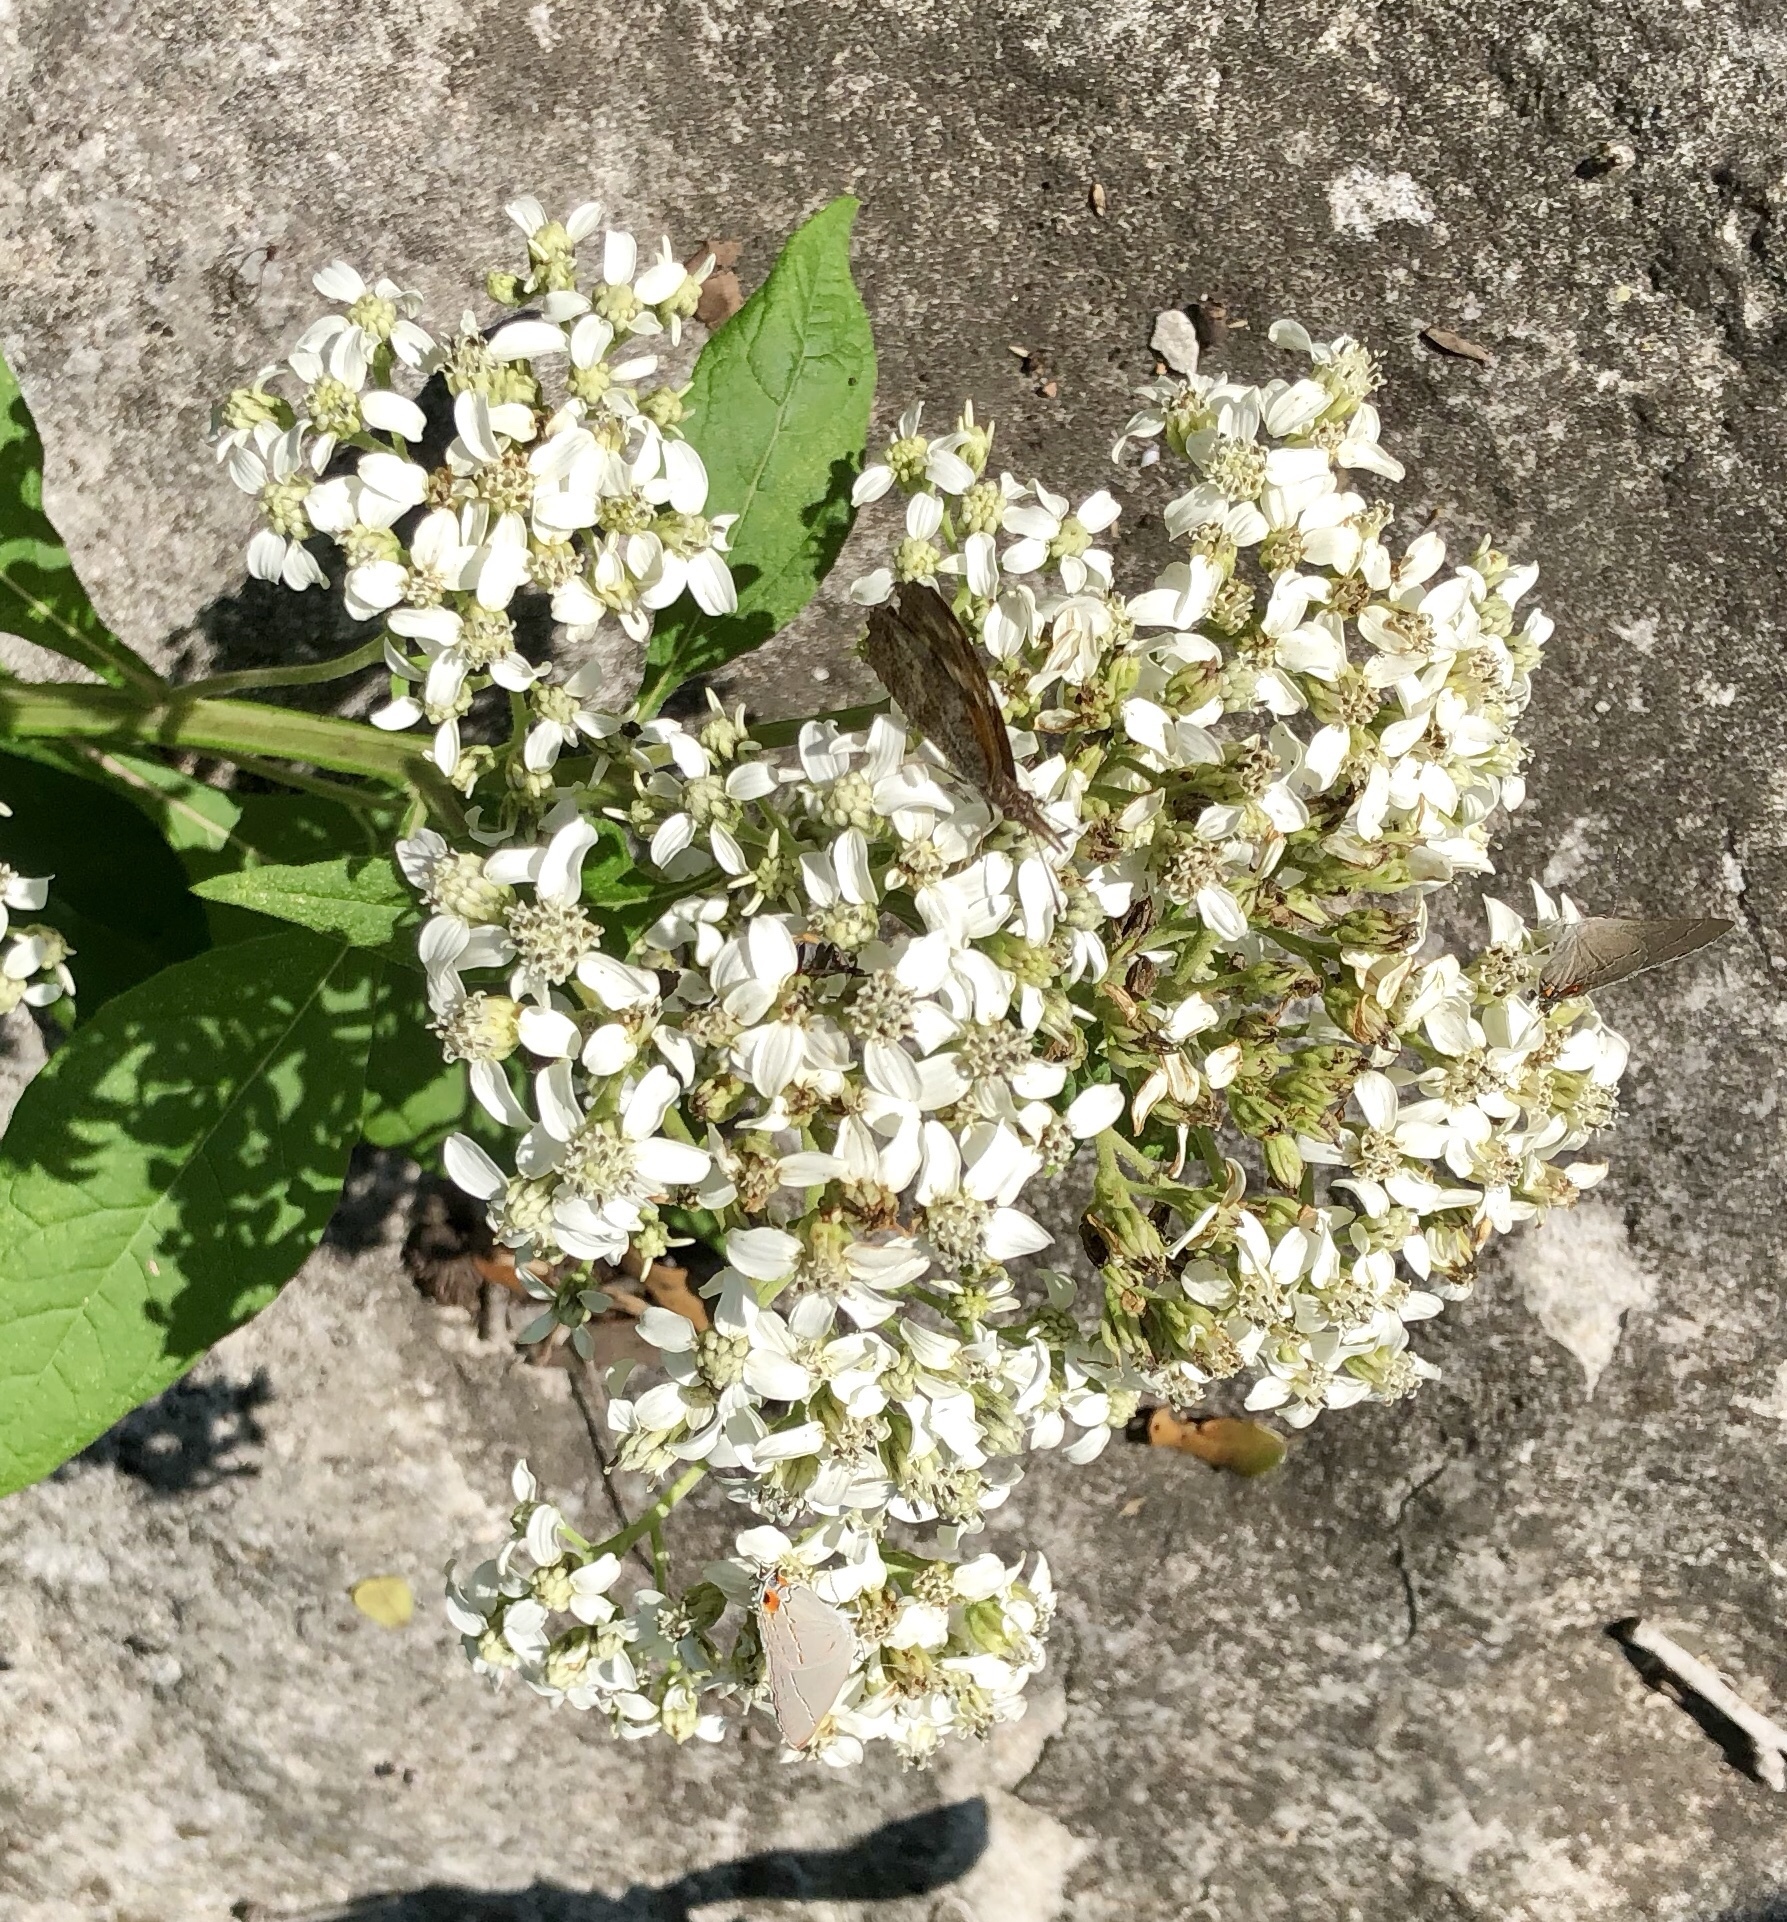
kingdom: Plantae
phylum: Tracheophyta
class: Magnoliopsida
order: Asterales
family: Asteraceae
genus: Verbesina
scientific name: Verbesina virginica
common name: Frostweed
